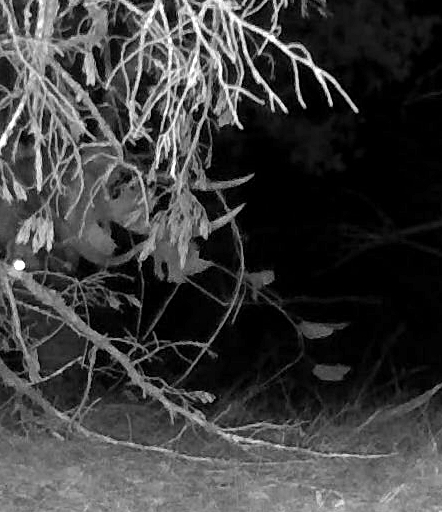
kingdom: Animalia
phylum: Chordata
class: Mammalia
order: Artiodactyla
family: Cervidae
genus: Cervus
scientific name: Cervus elaphus
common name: Red deer
